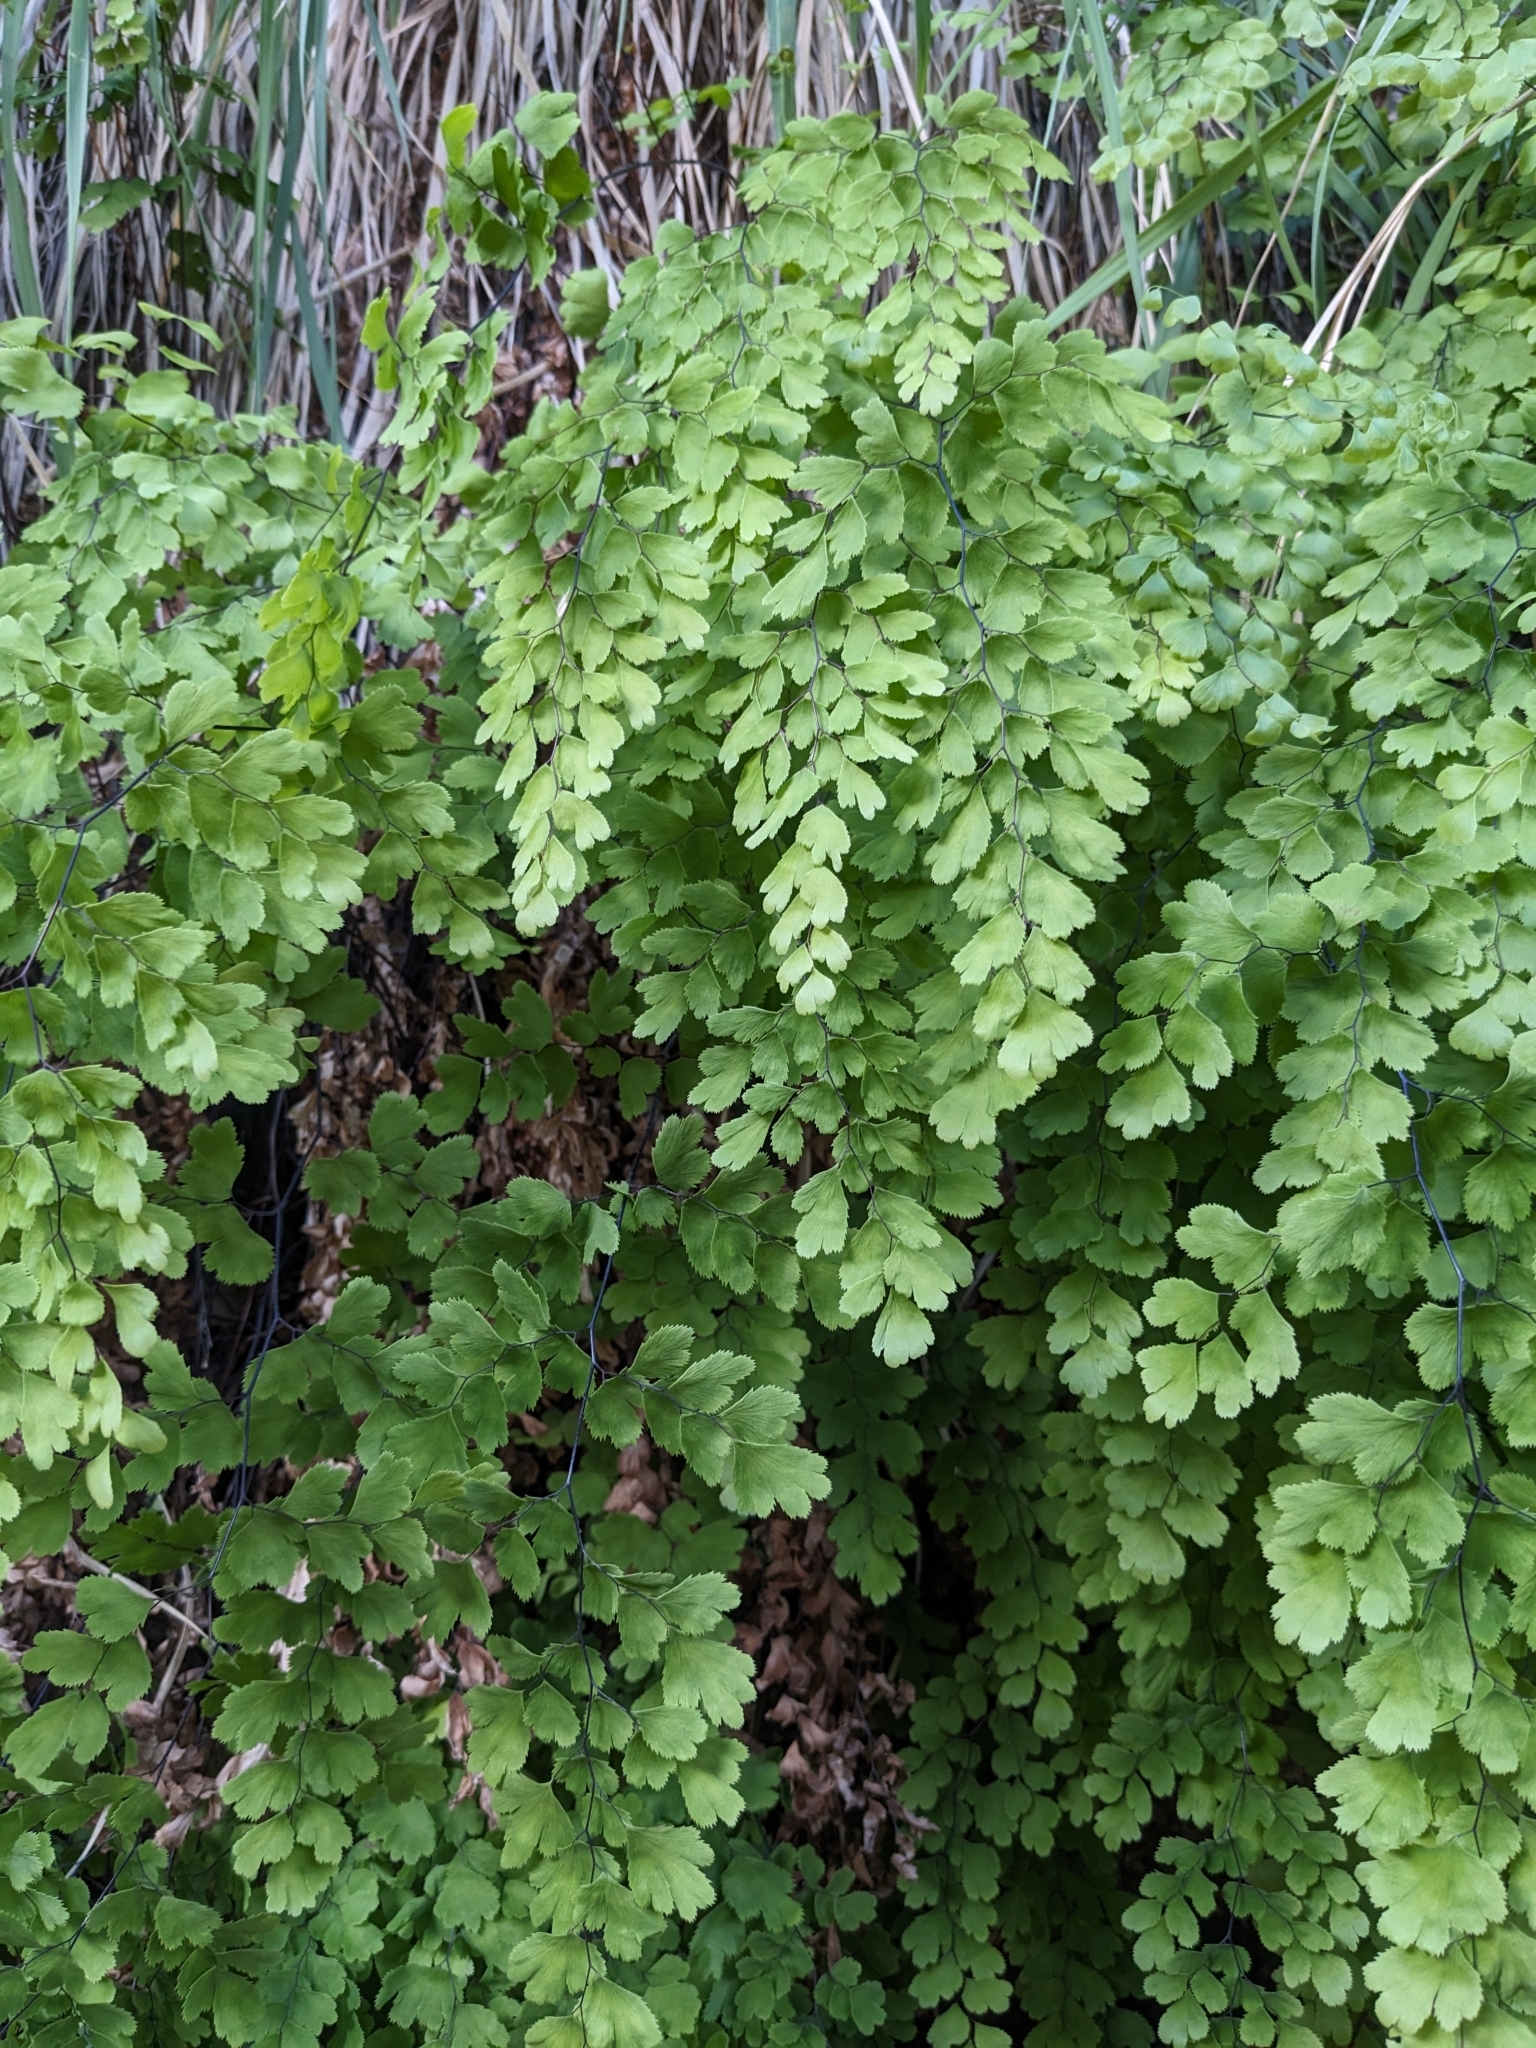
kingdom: Plantae
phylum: Tracheophyta
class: Polypodiopsida
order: Polypodiales
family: Pteridaceae
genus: Adiantum
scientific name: Adiantum capillus-veneris
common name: Maidenhair fern
